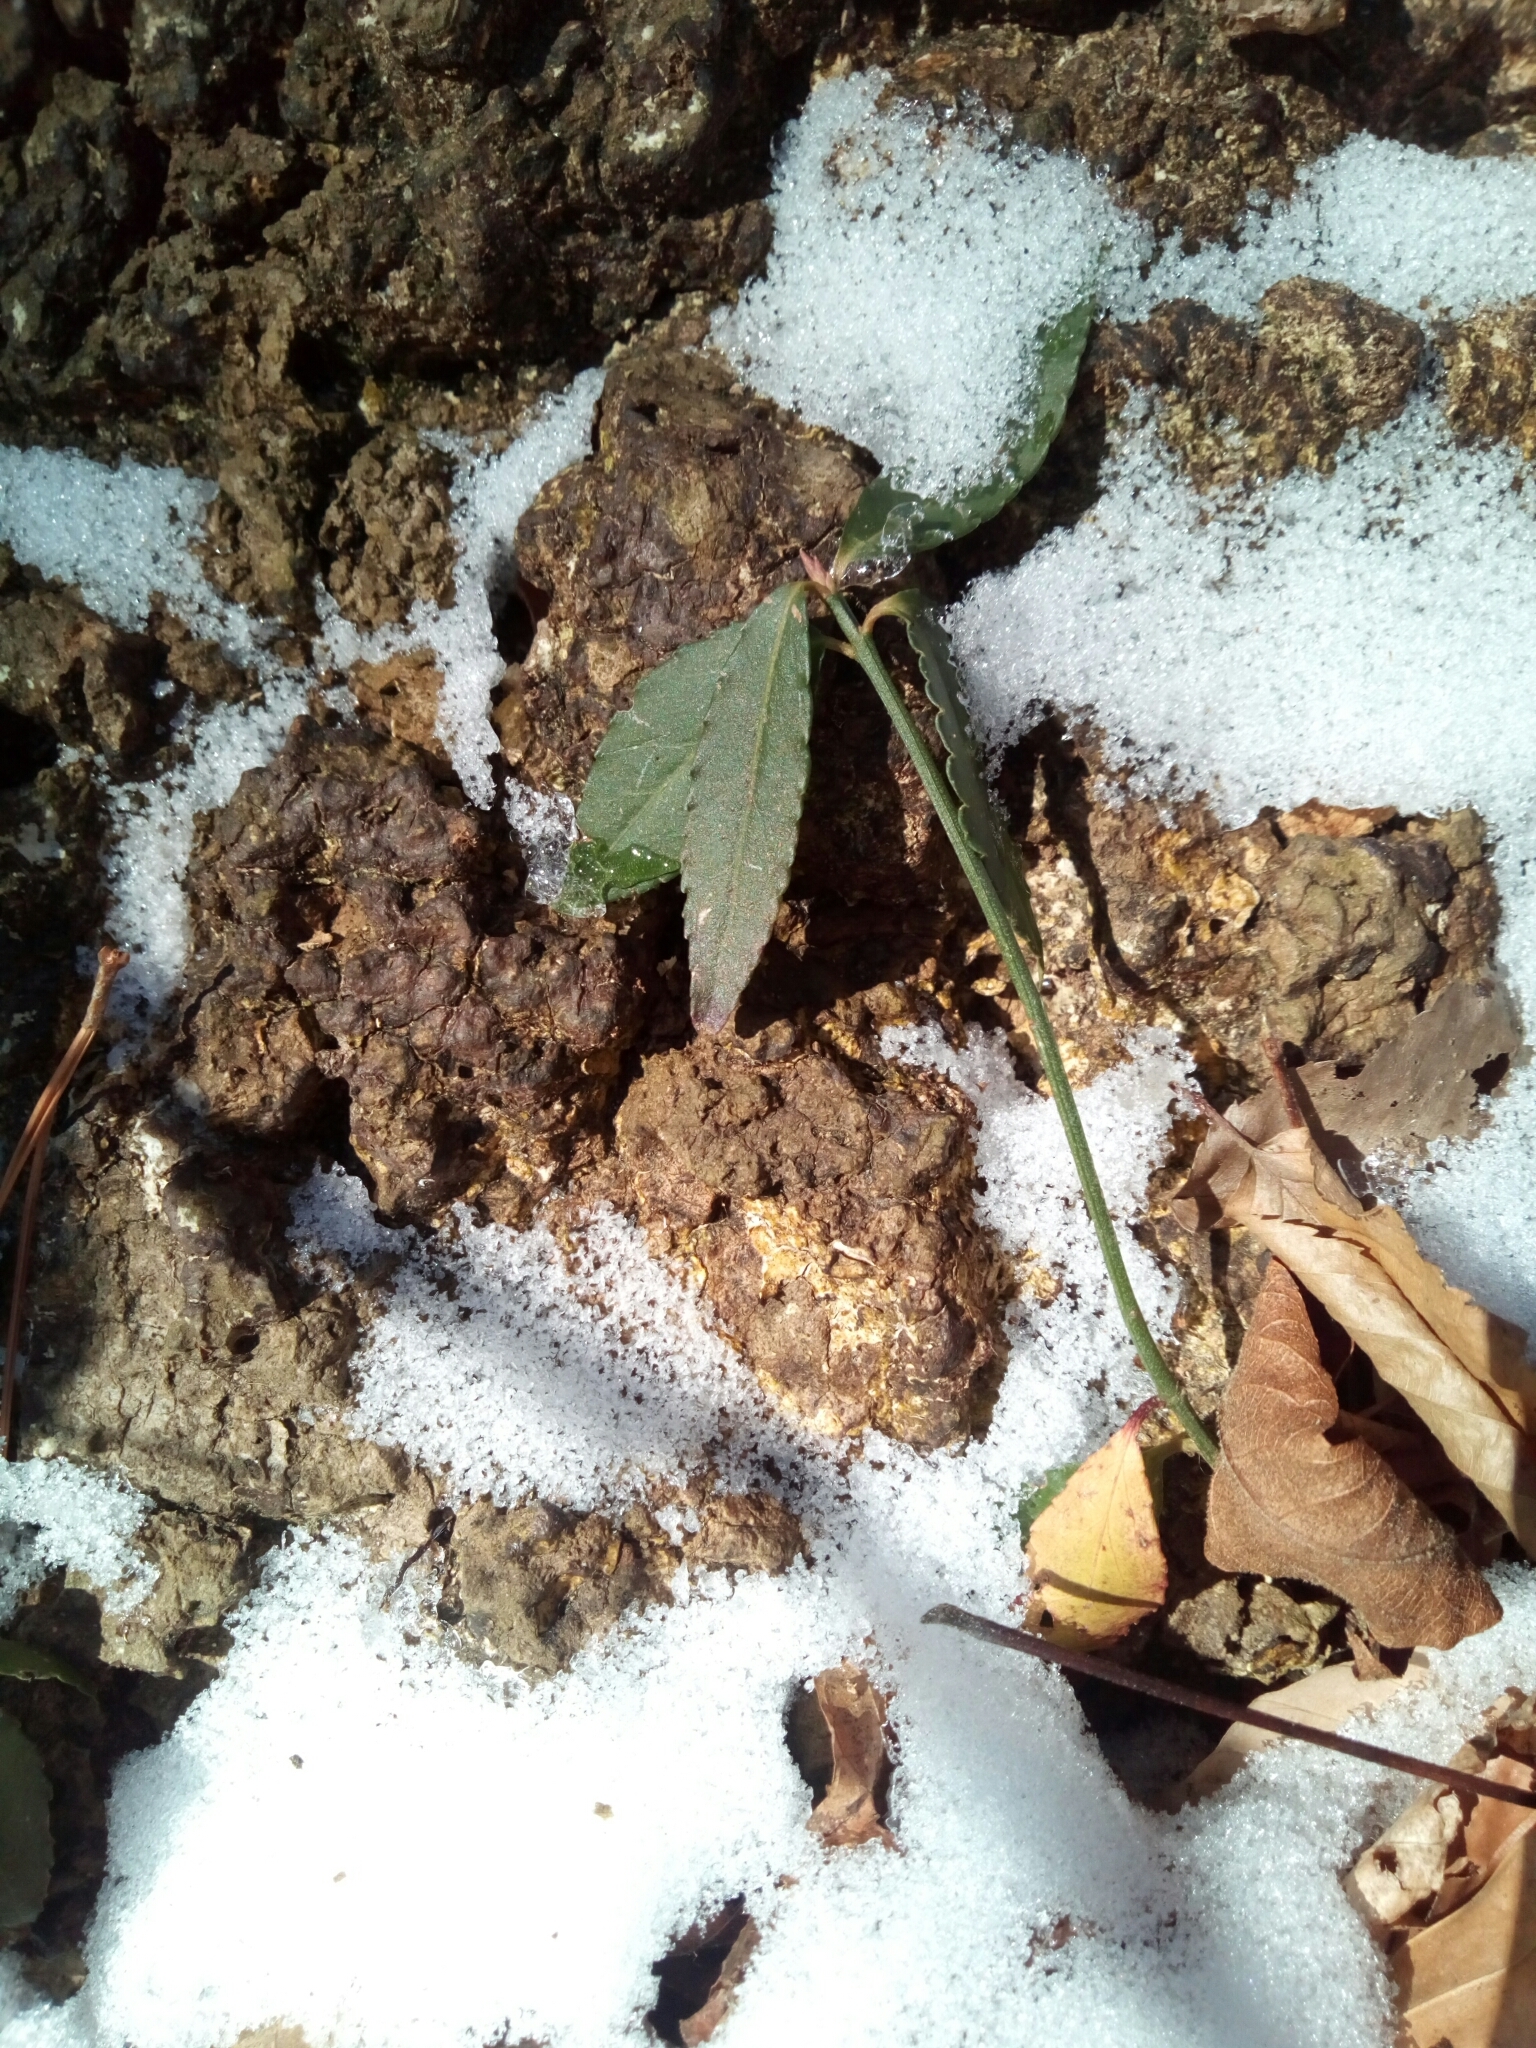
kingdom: Plantae
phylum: Tracheophyta
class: Magnoliopsida
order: Celastrales
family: Celastraceae
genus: Euonymus
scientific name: Euonymus americanus
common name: Bursting-heart
